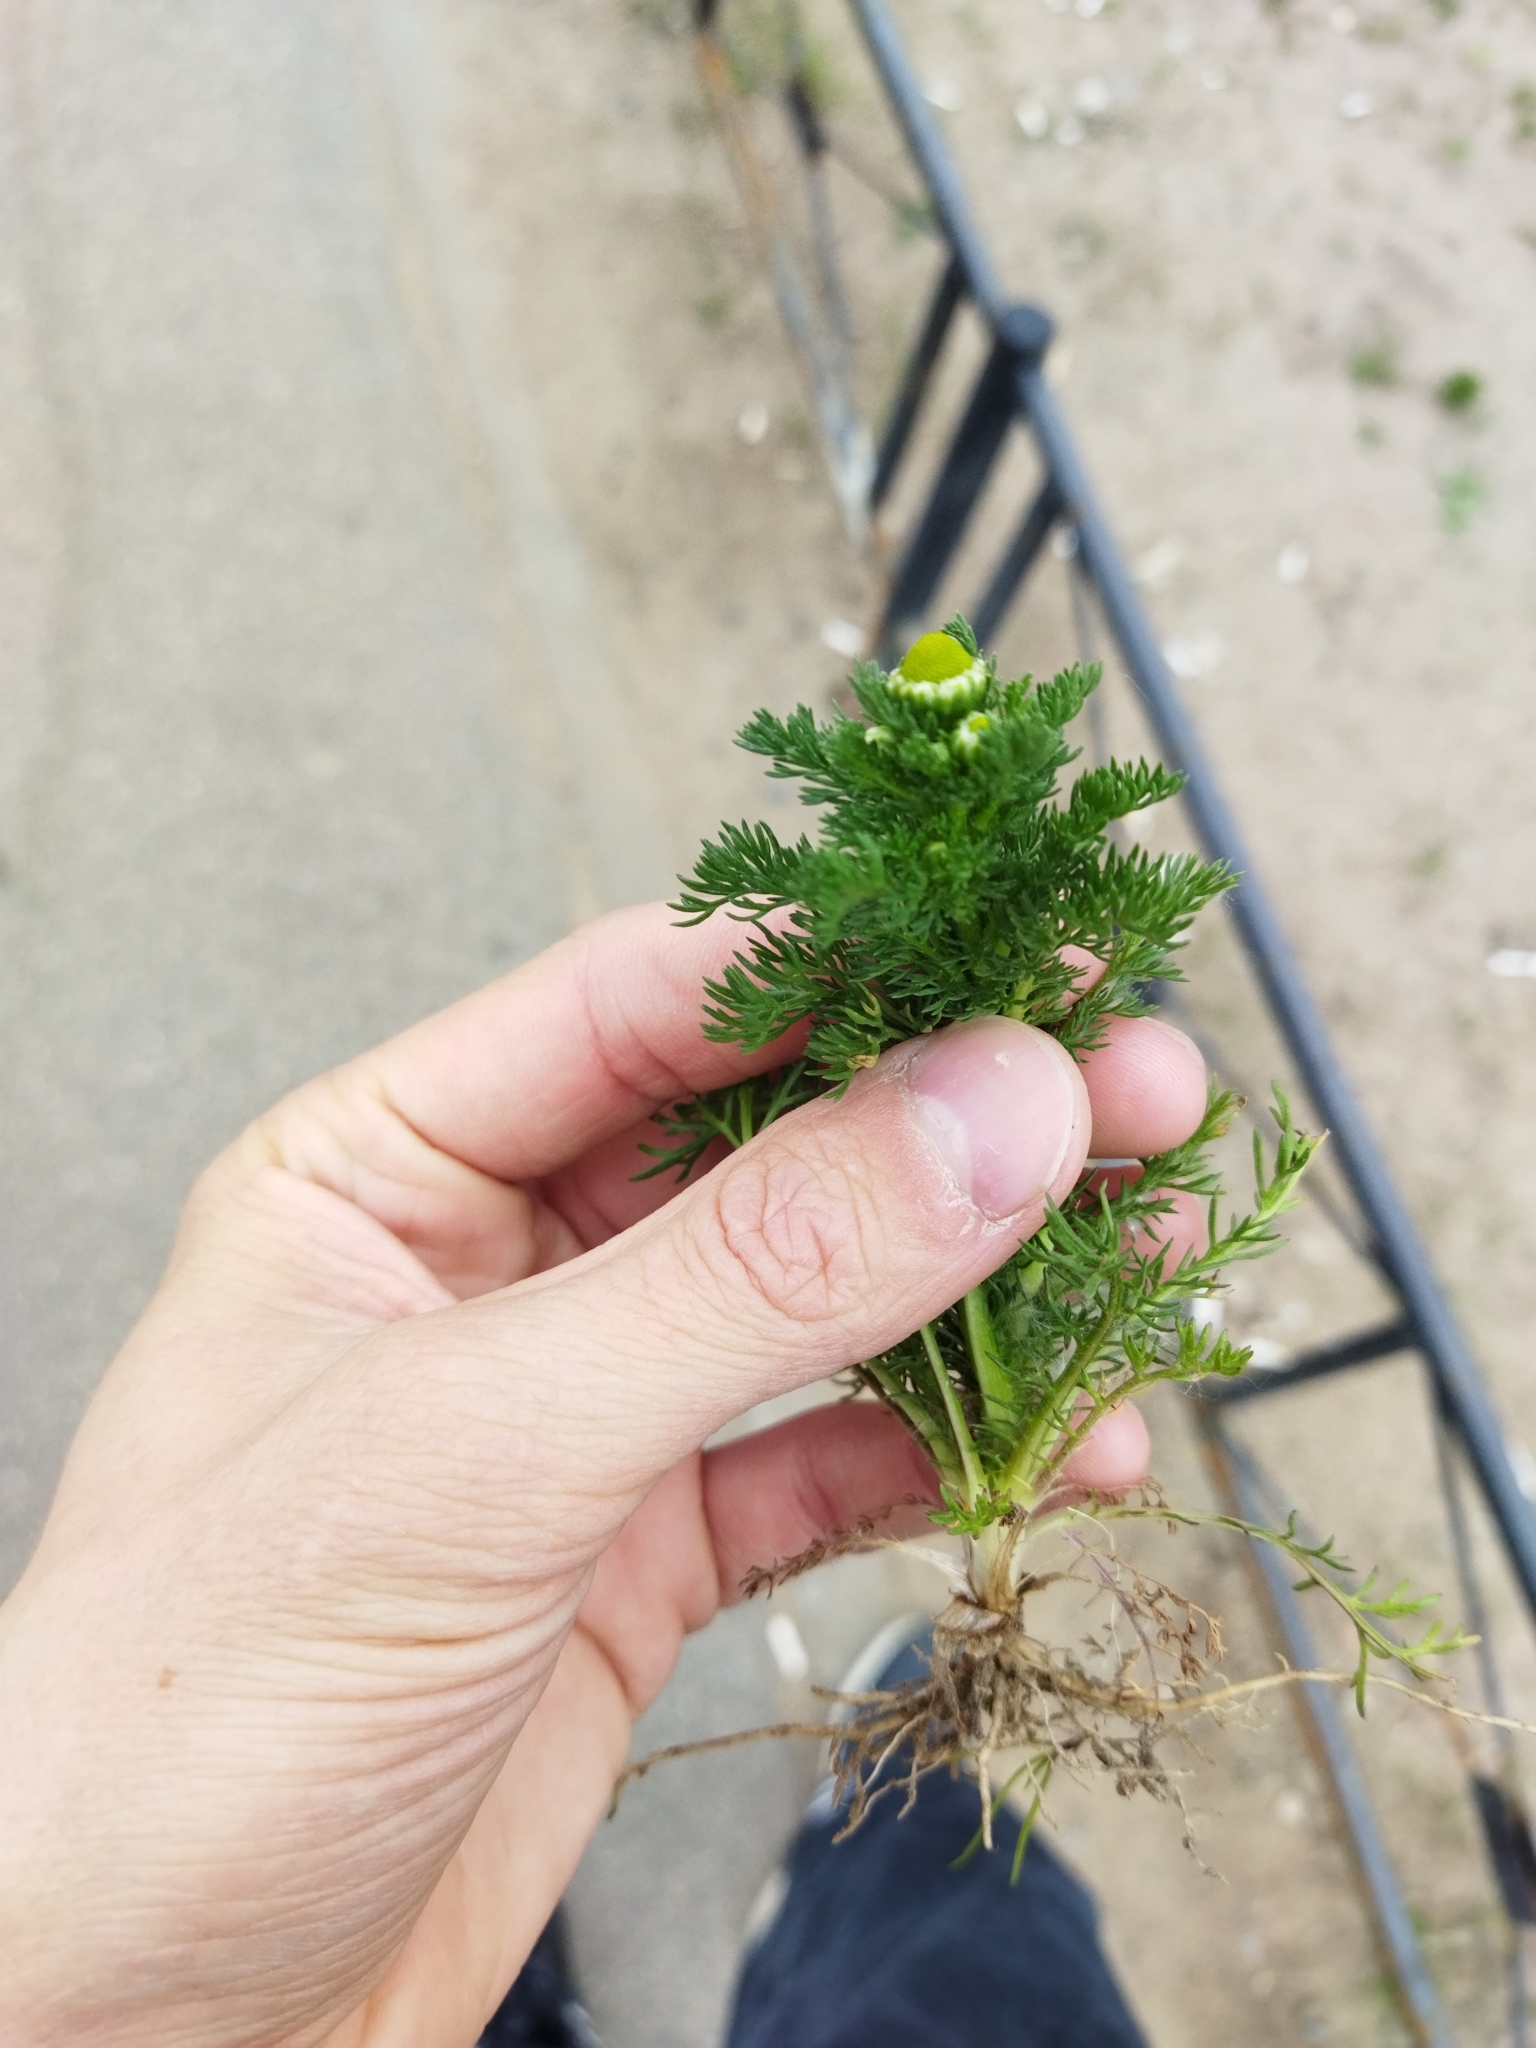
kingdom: Plantae
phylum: Tracheophyta
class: Magnoliopsida
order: Asterales
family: Asteraceae
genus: Matricaria
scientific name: Matricaria discoidea
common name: Disc mayweed
